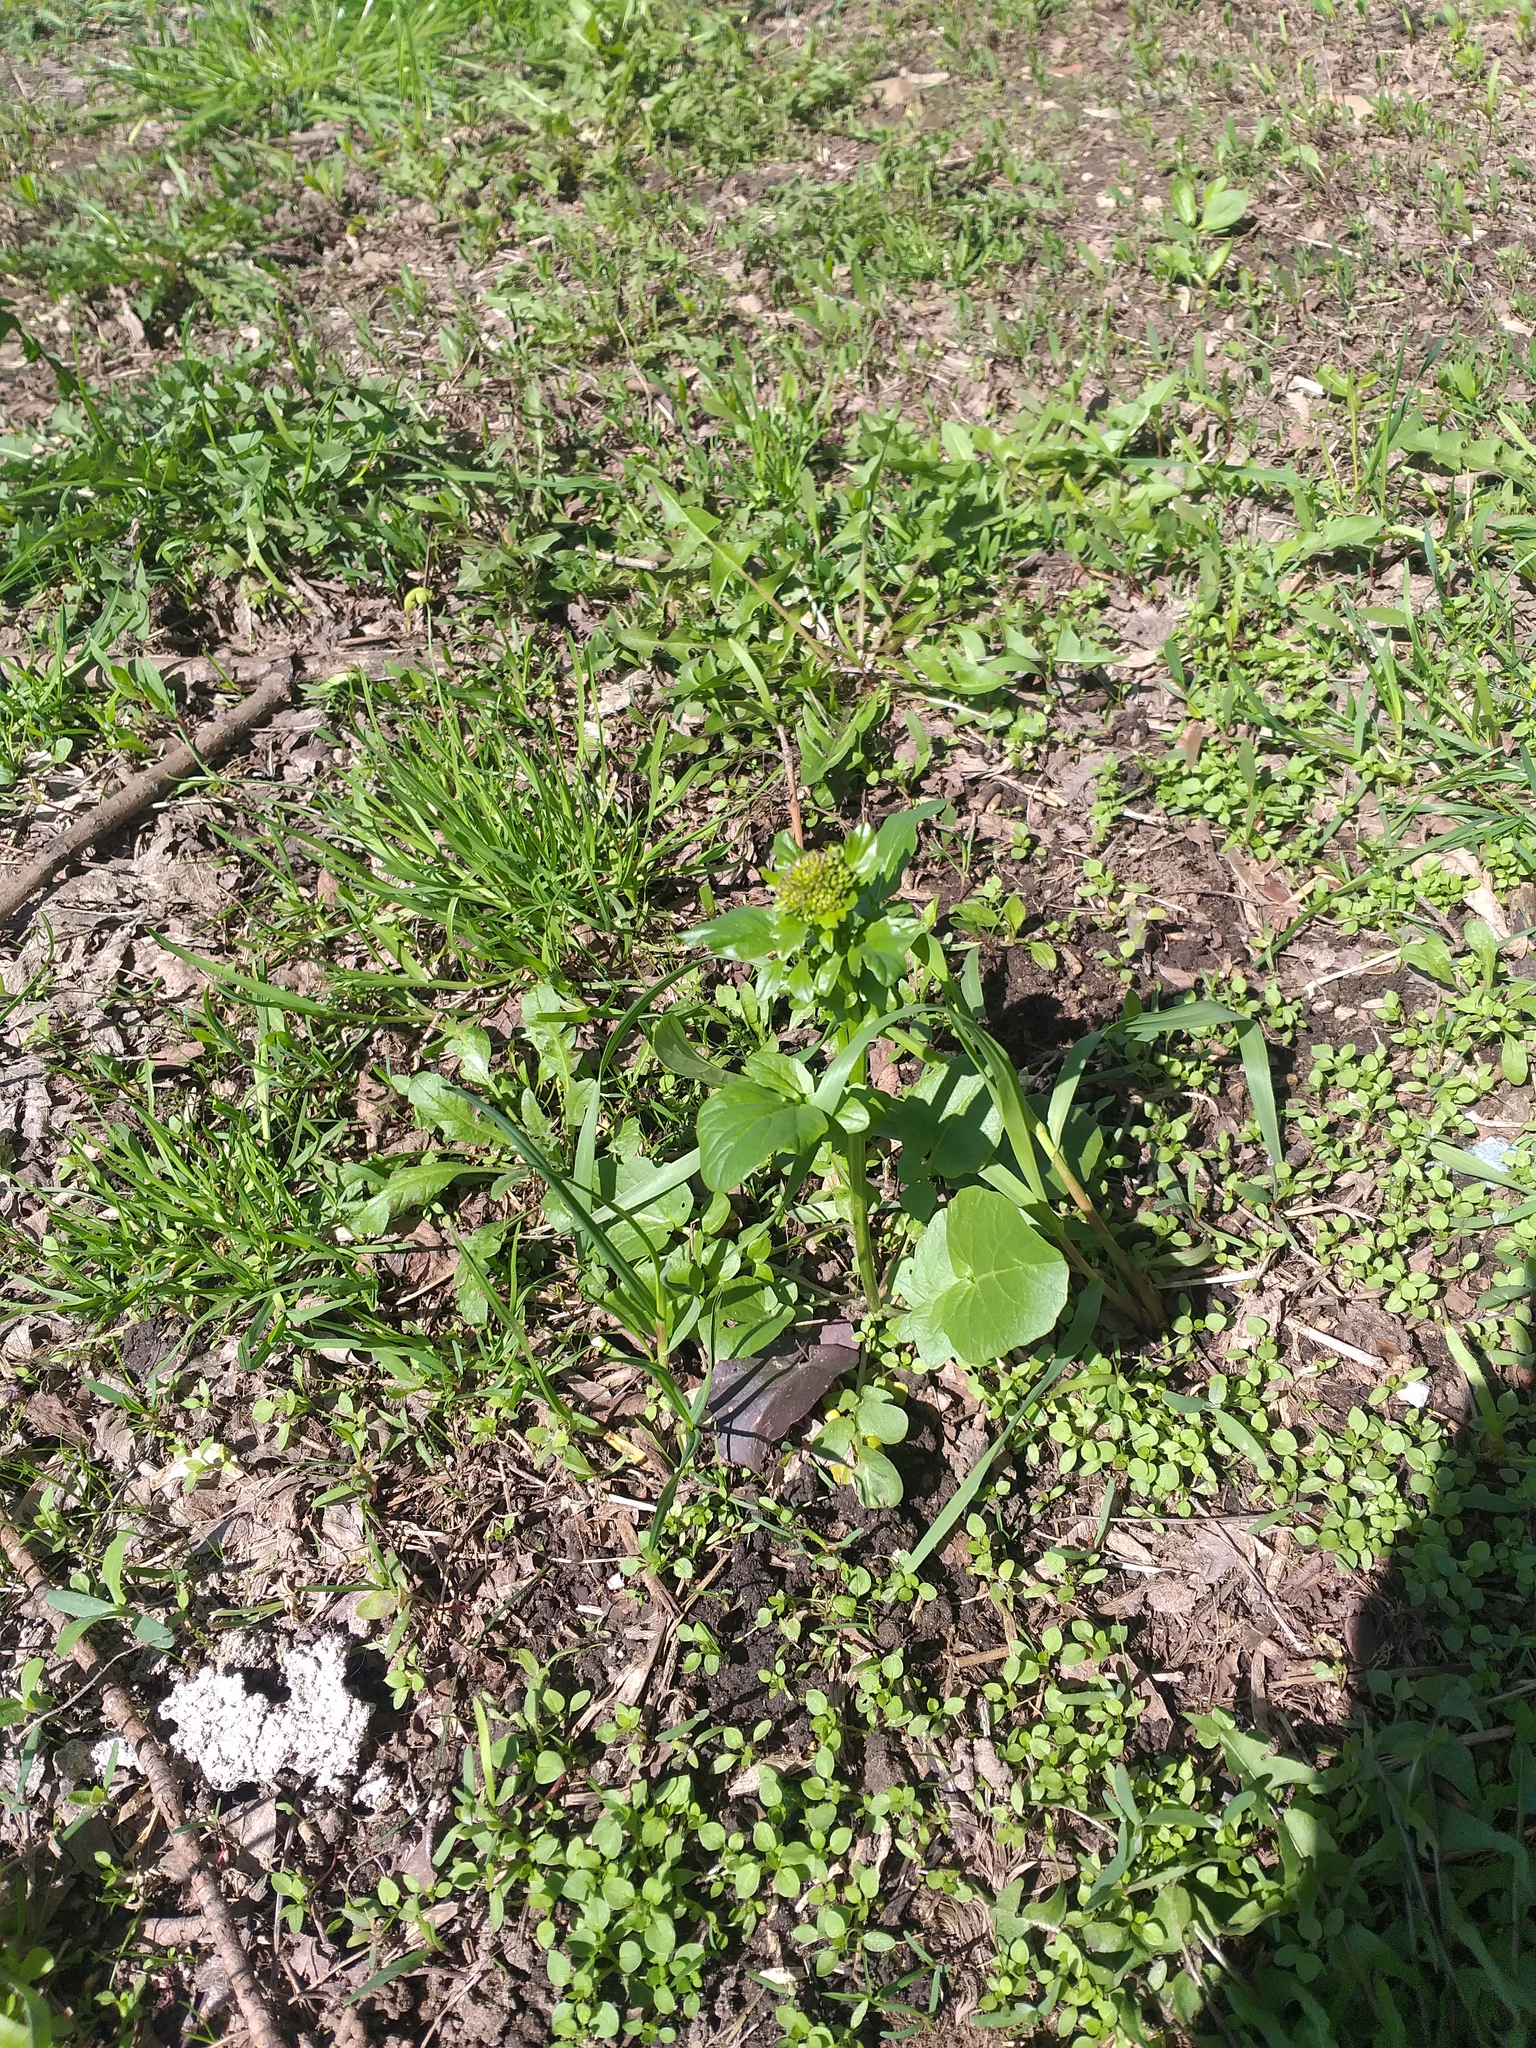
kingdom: Plantae
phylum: Tracheophyta
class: Magnoliopsida
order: Brassicales
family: Brassicaceae
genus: Barbarea
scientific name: Barbarea vulgaris
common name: Cressy-greens
